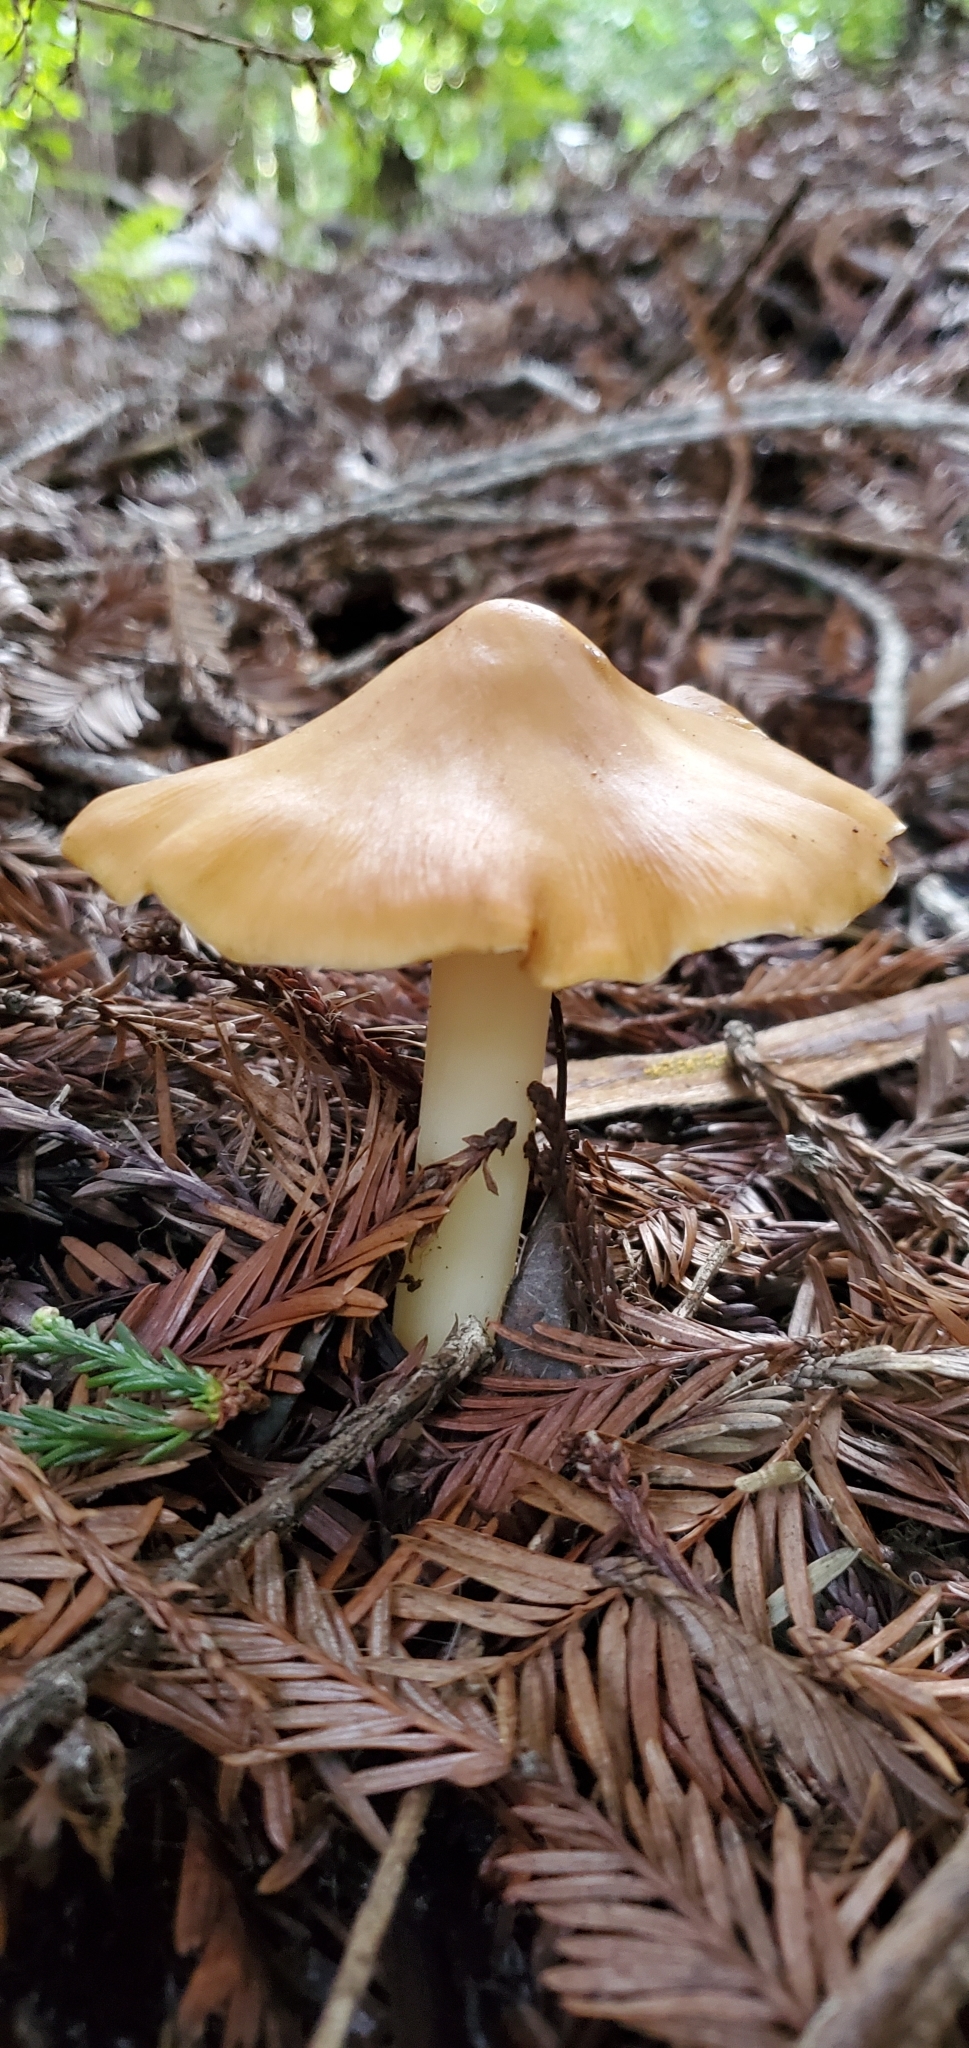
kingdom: Fungi
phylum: Basidiomycota
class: Agaricomycetes
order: Agaricales
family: Tricholomataceae
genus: Caulorhiza
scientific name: Caulorhiza umbonata
